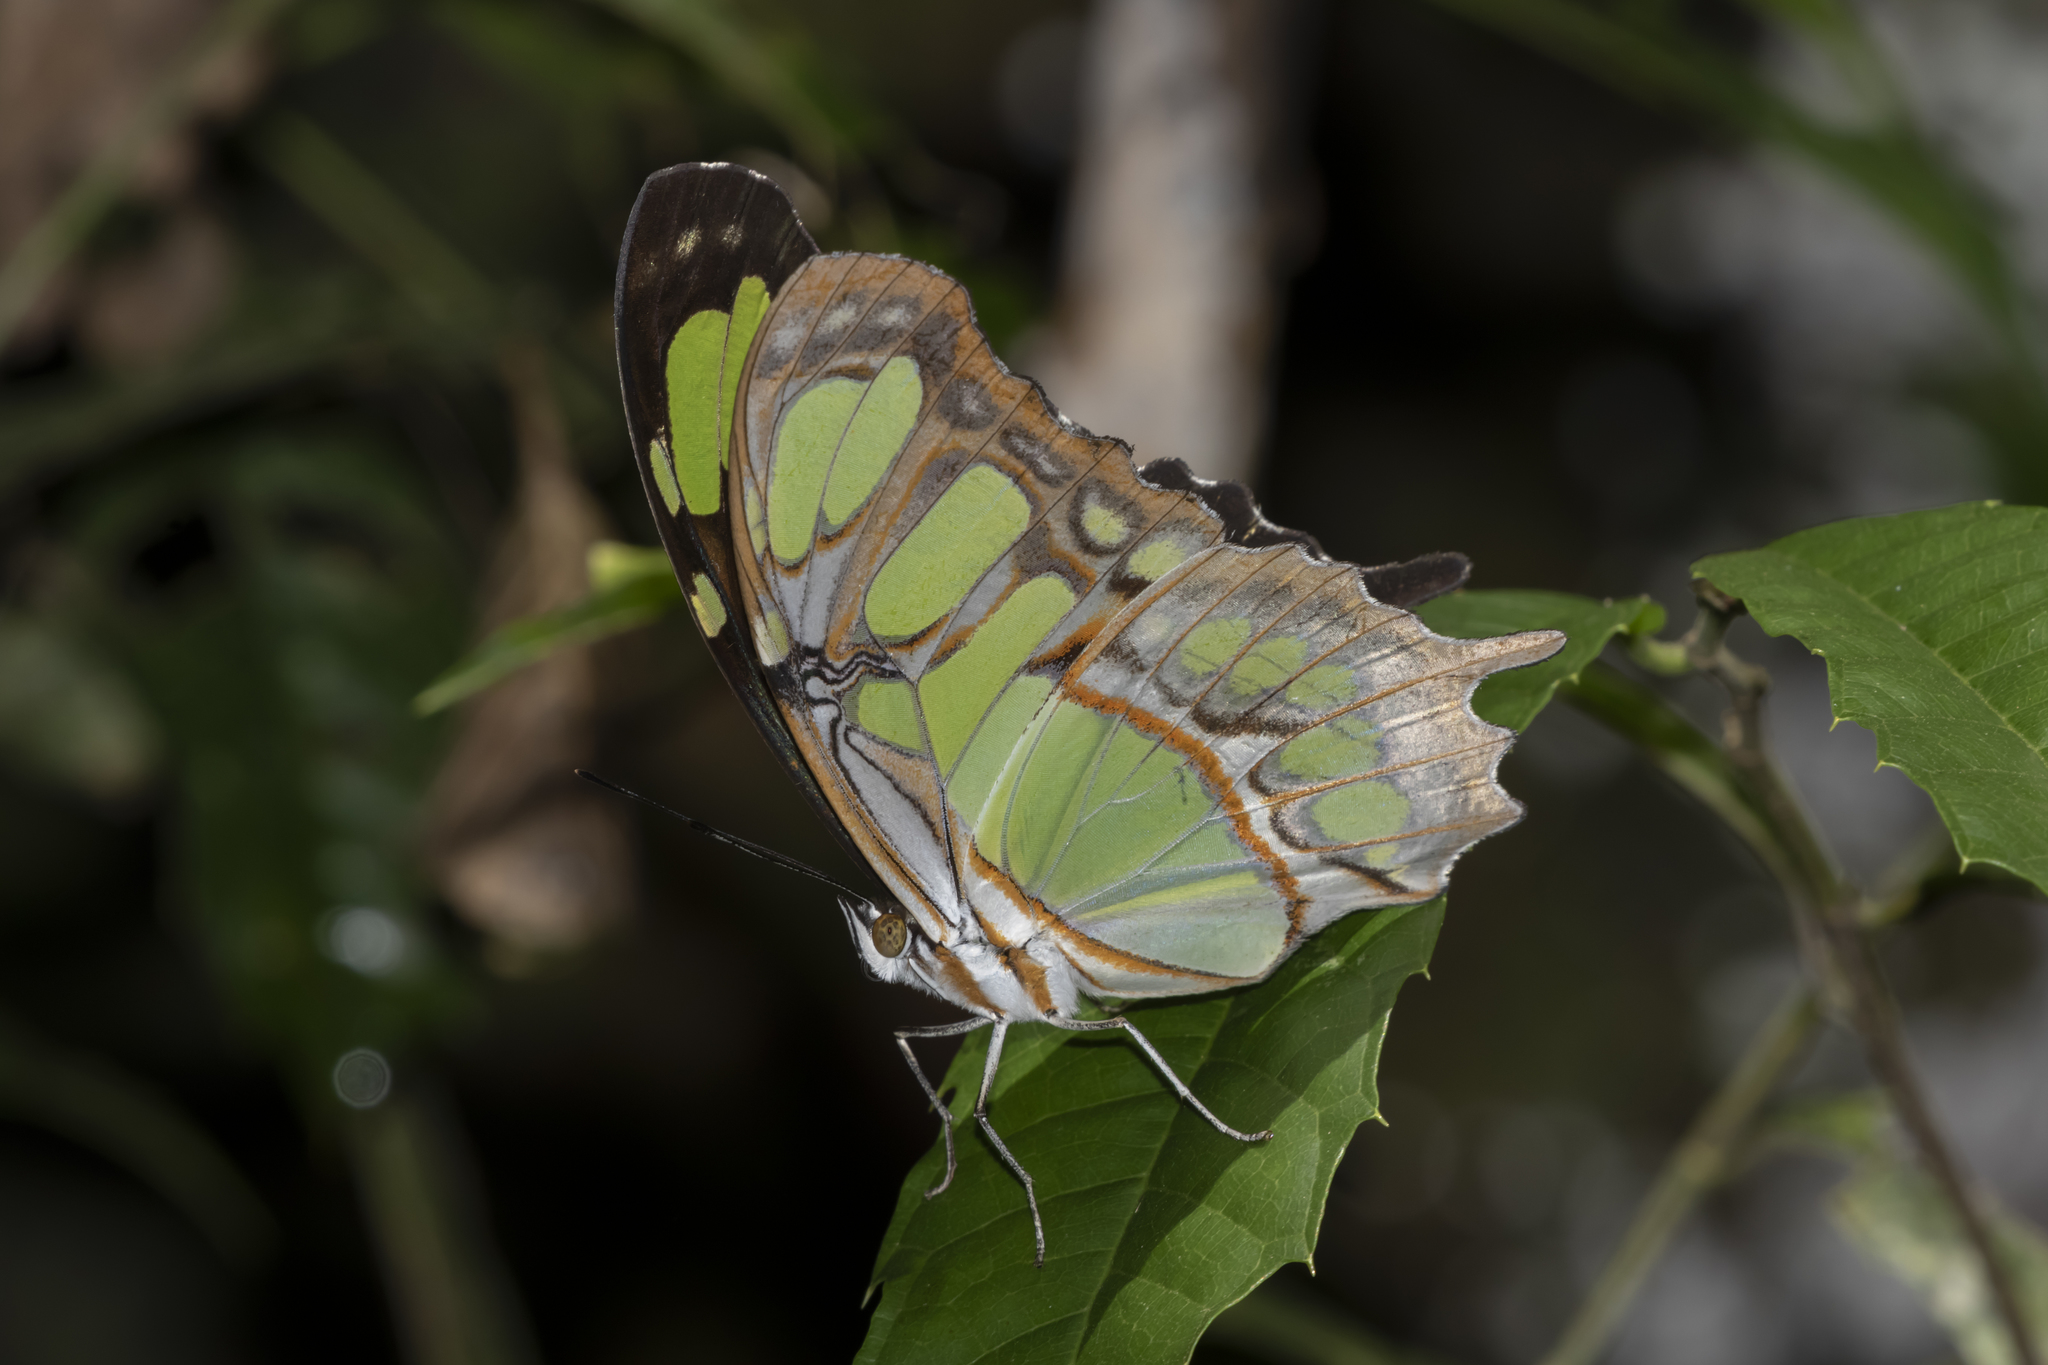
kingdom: Animalia
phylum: Arthropoda
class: Insecta
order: Lepidoptera
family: Nymphalidae
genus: Siproeta
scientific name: Siproeta stelenes
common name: Malachite
